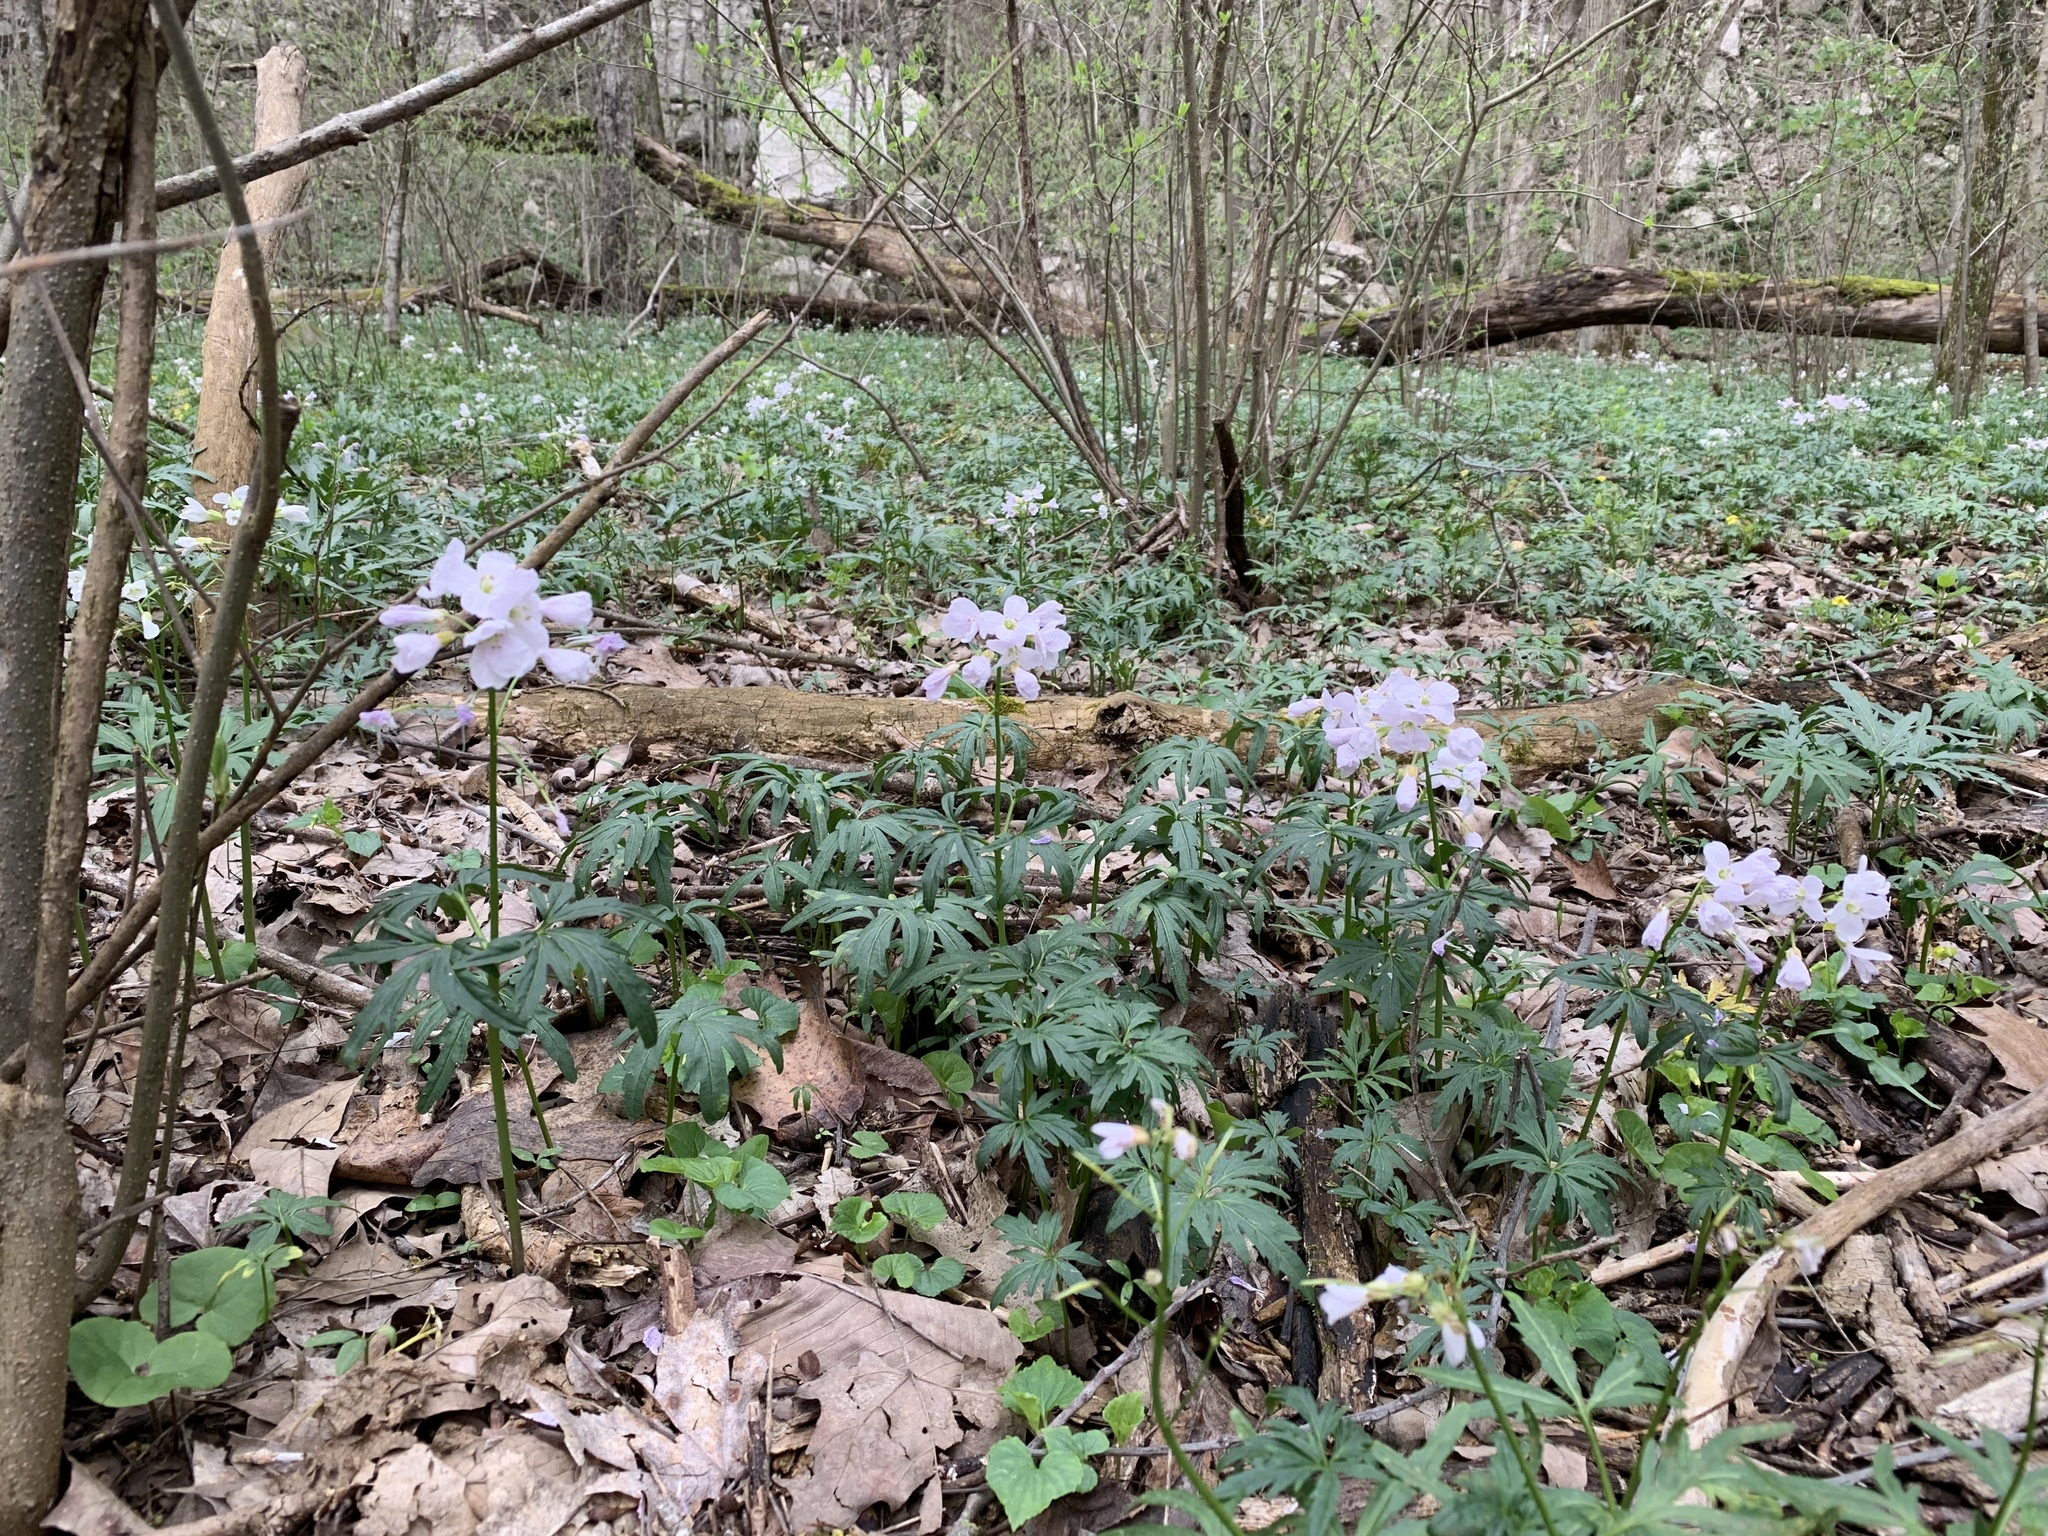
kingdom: Plantae
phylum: Tracheophyta
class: Magnoliopsida
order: Brassicales
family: Brassicaceae
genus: Cardamine
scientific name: Cardamine concatenata
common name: Cut-leaf toothcup
